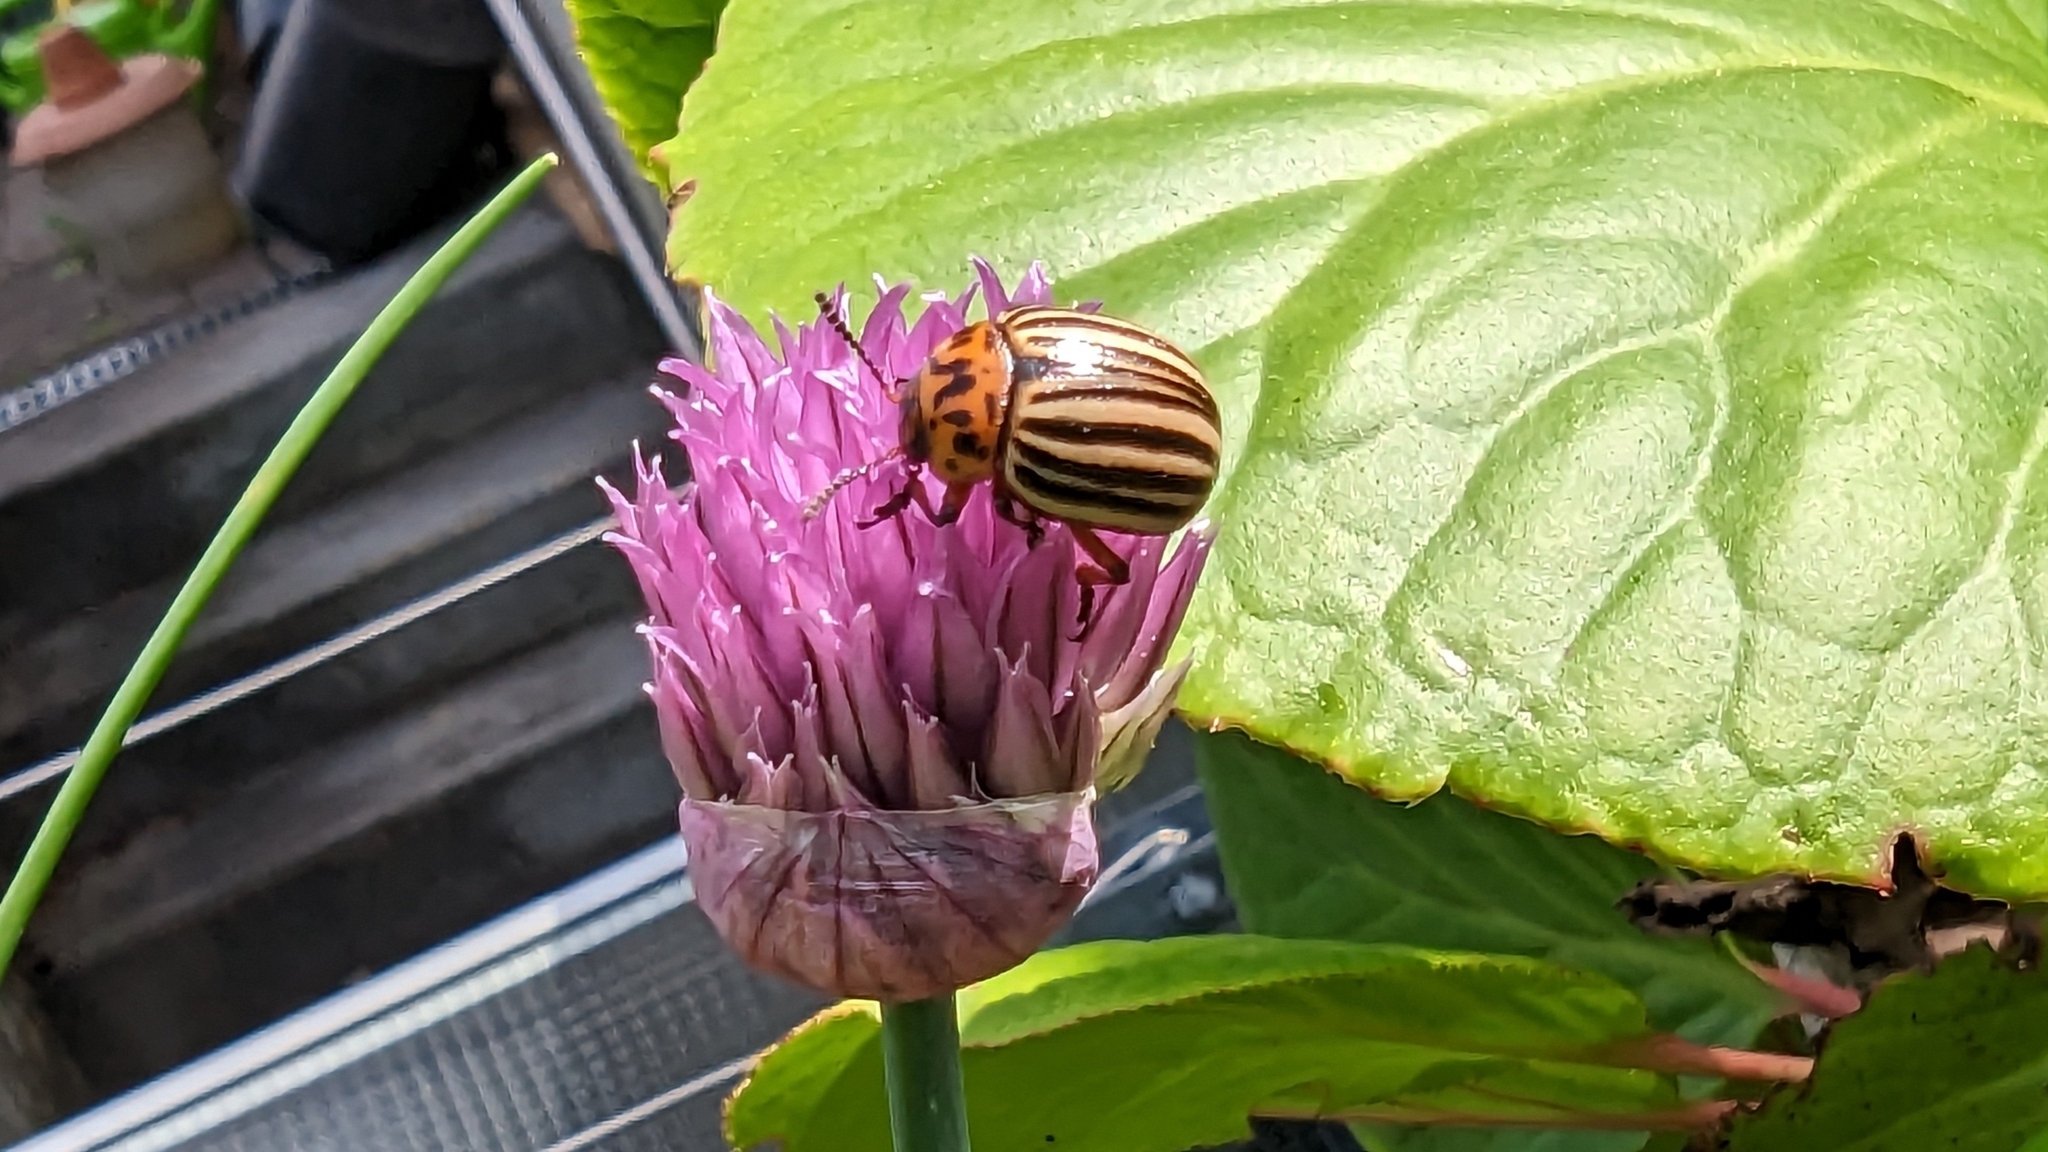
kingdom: Animalia
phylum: Arthropoda
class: Insecta
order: Coleoptera
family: Chrysomelidae
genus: Leptinotarsa
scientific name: Leptinotarsa decemlineata
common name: Colorado potato beetle
